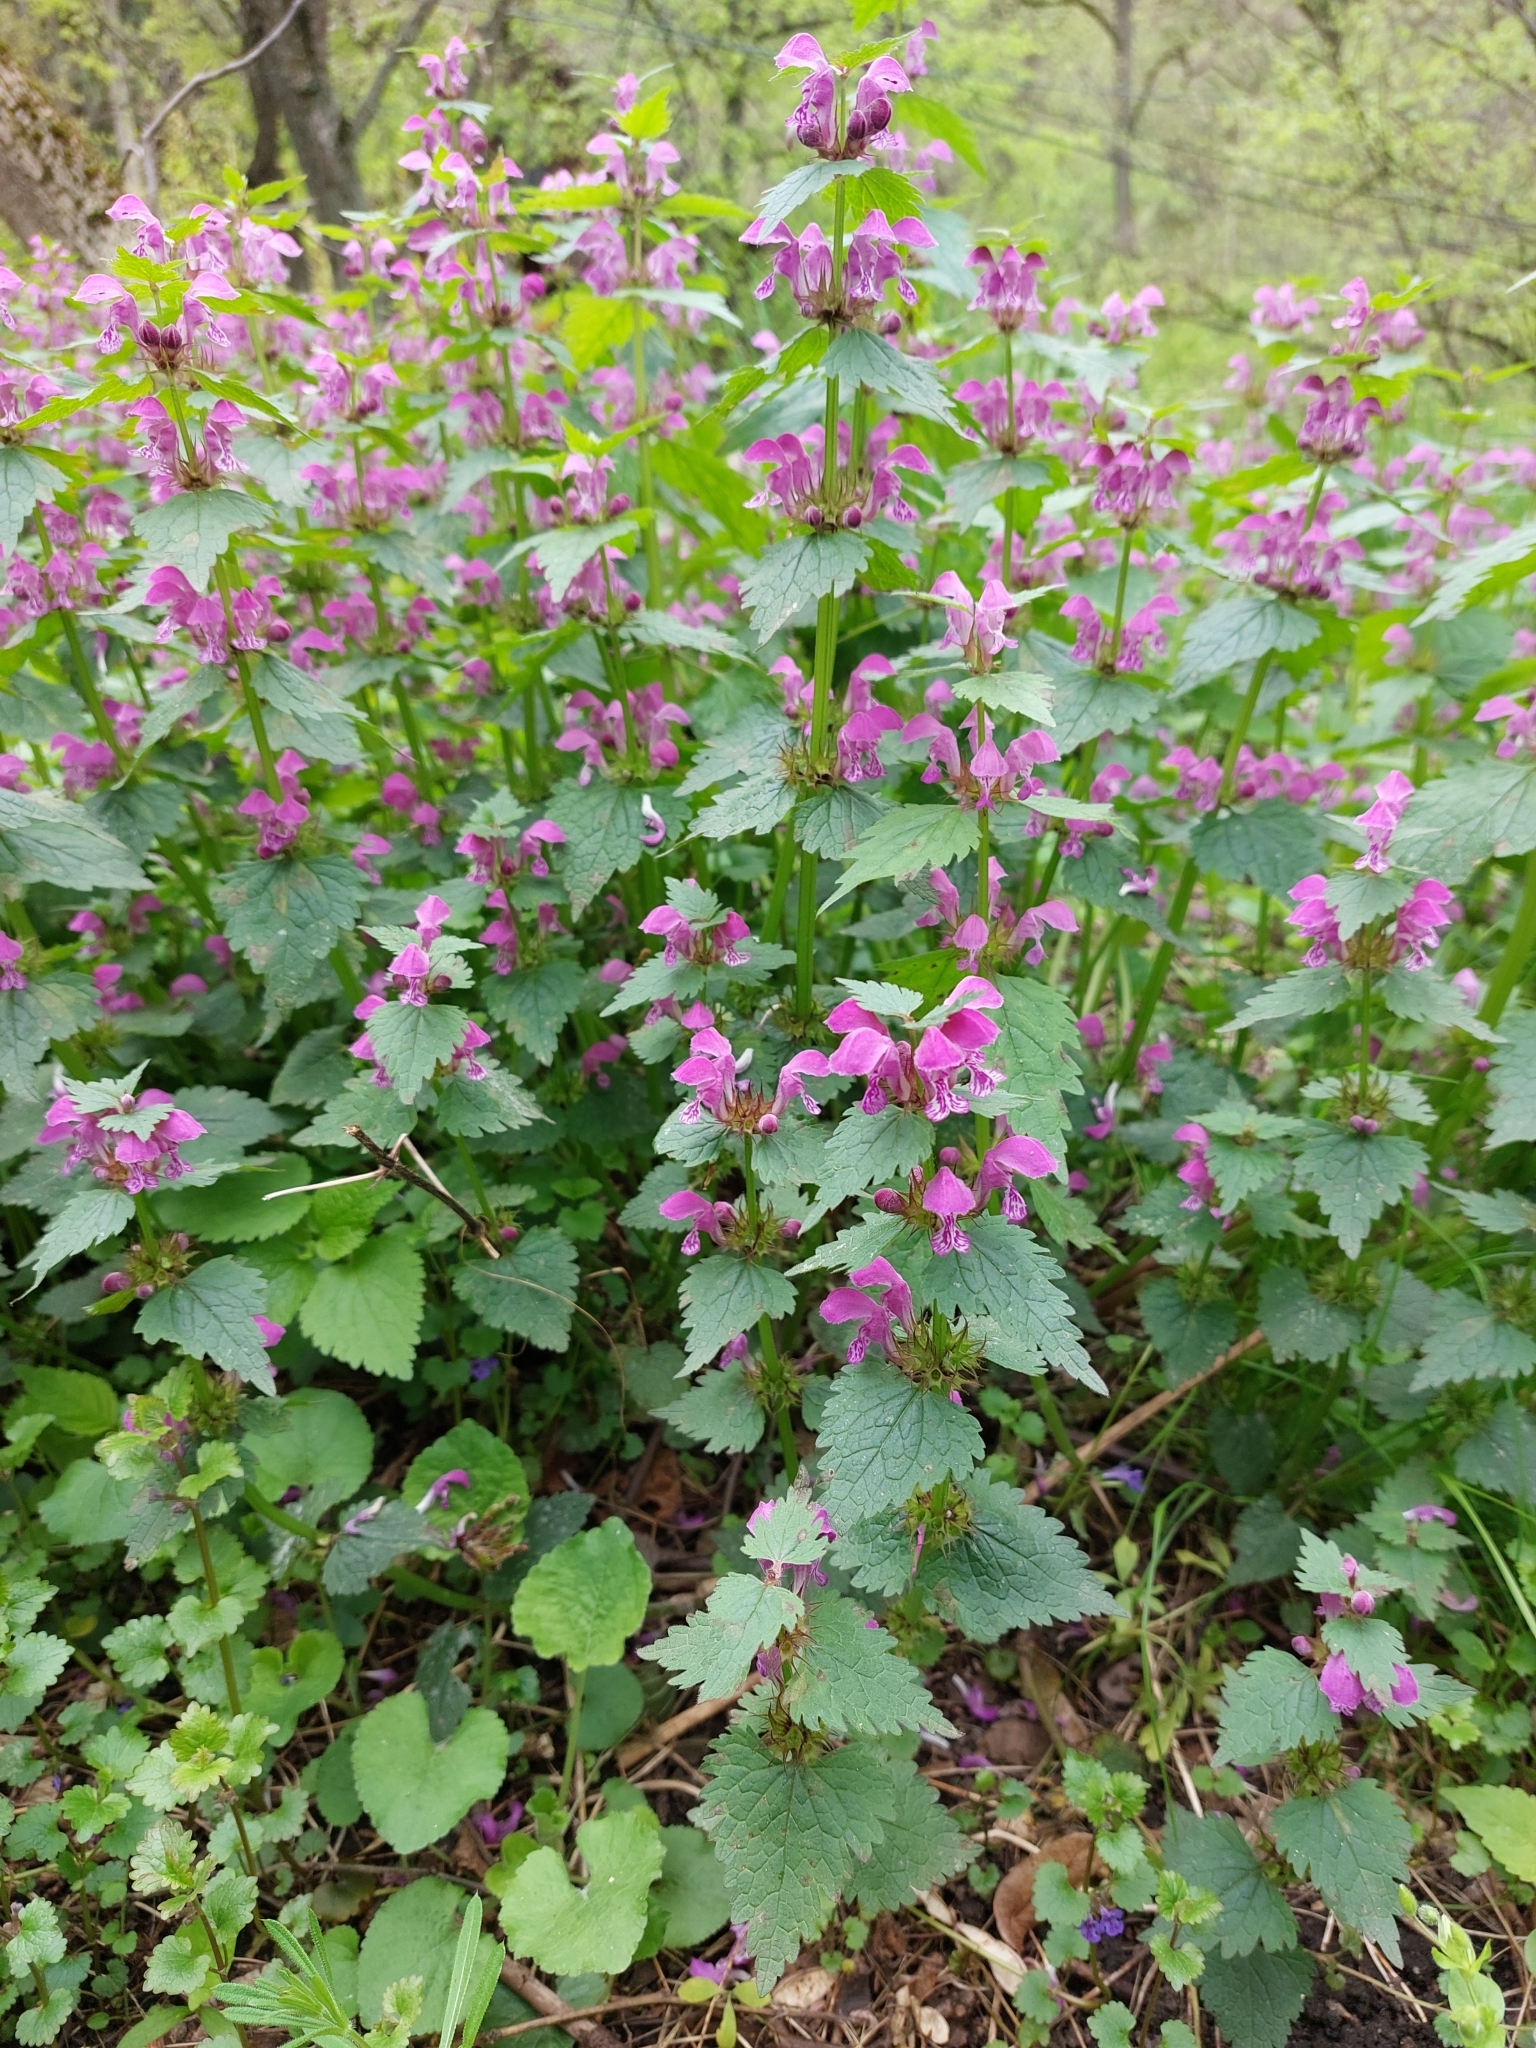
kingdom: Plantae
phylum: Tracheophyta
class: Magnoliopsida
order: Lamiales
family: Lamiaceae
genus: Lamium
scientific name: Lamium maculatum
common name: Spotted dead-nettle
